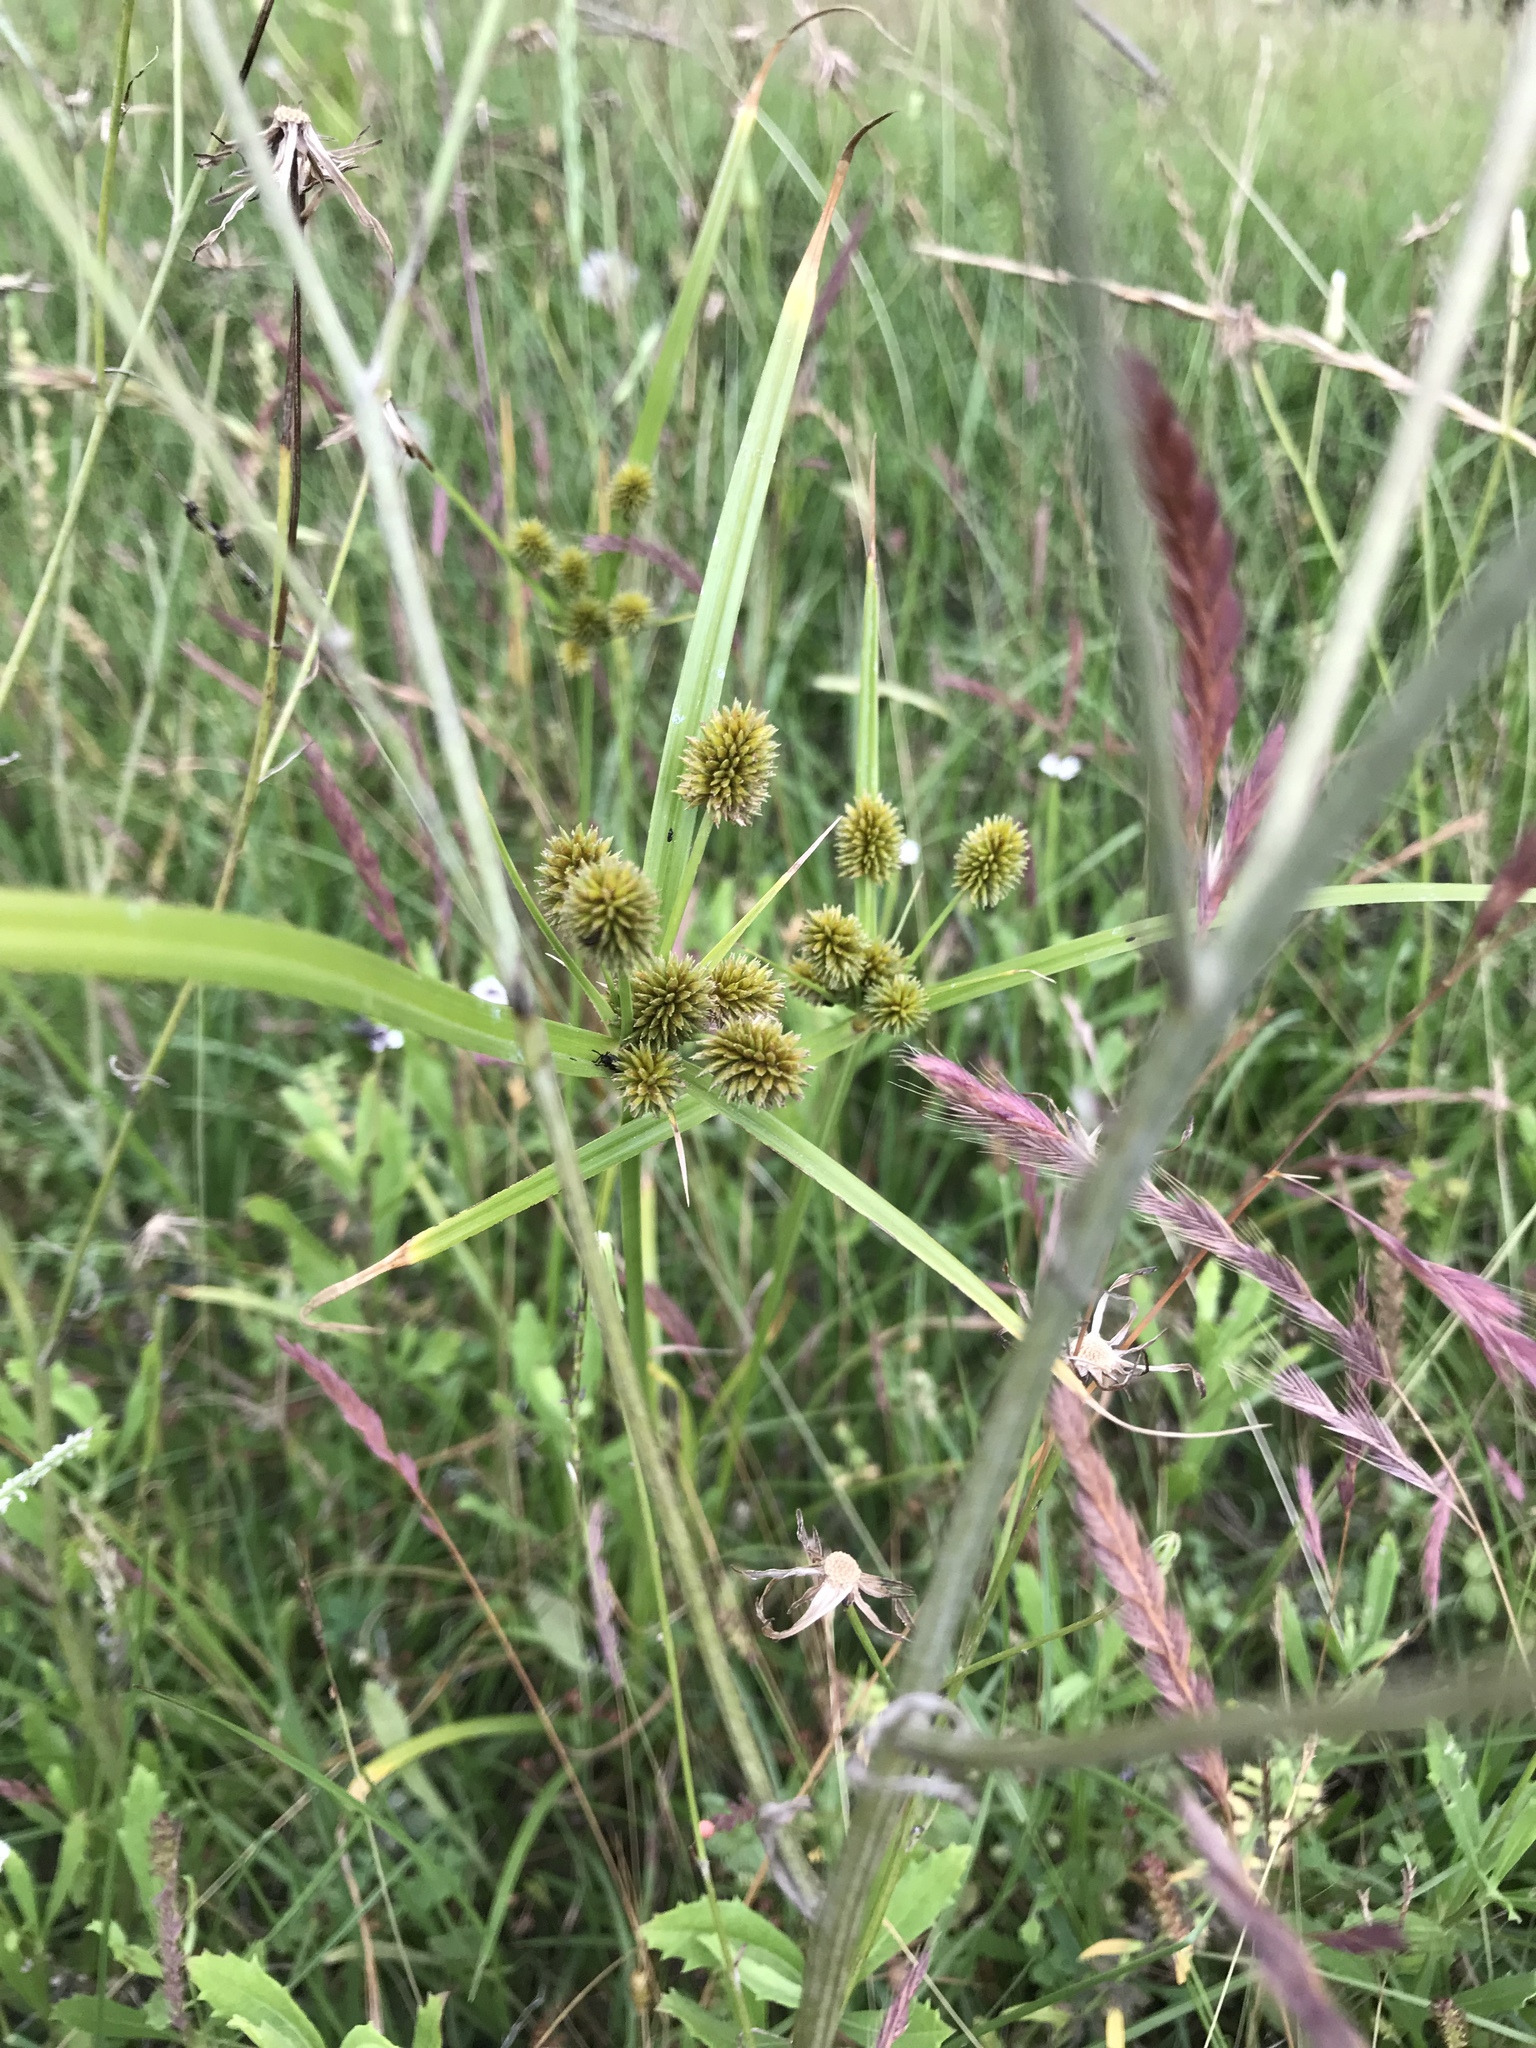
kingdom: Plantae
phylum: Tracheophyta
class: Liliopsida
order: Poales
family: Cyperaceae
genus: Cyperus
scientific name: Cyperus echinatus
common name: Teasel sedge
